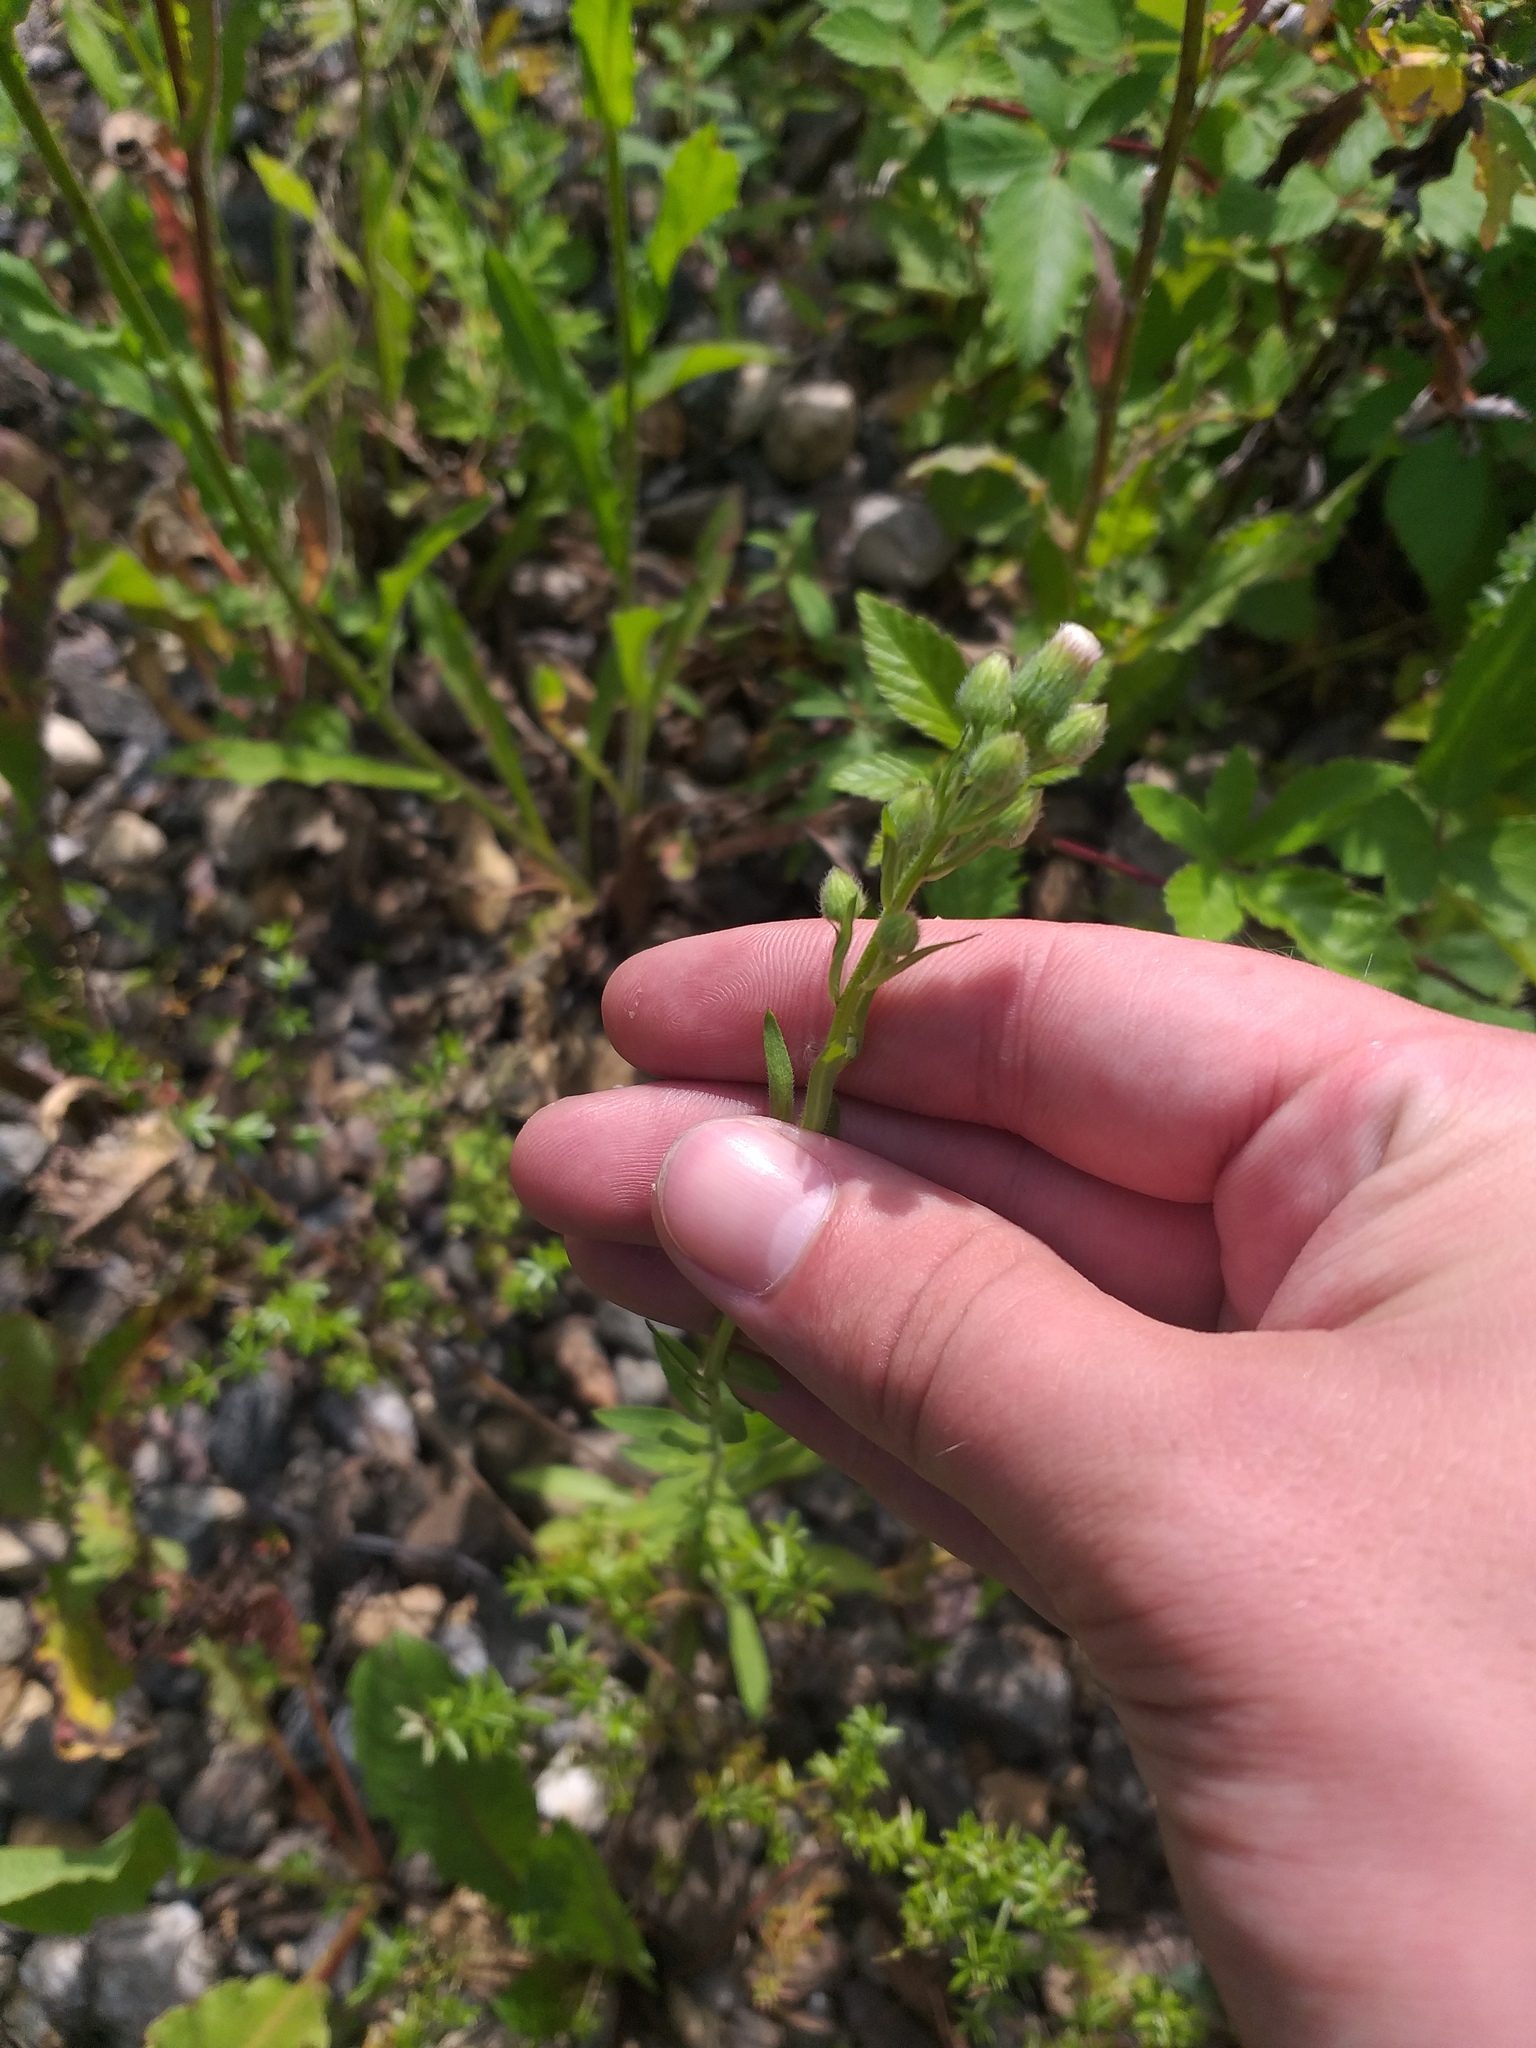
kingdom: Plantae
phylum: Tracheophyta
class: Magnoliopsida
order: Asterales
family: Asteraceae
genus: Erigeron
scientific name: Erigeron acris
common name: Blue fleabane
